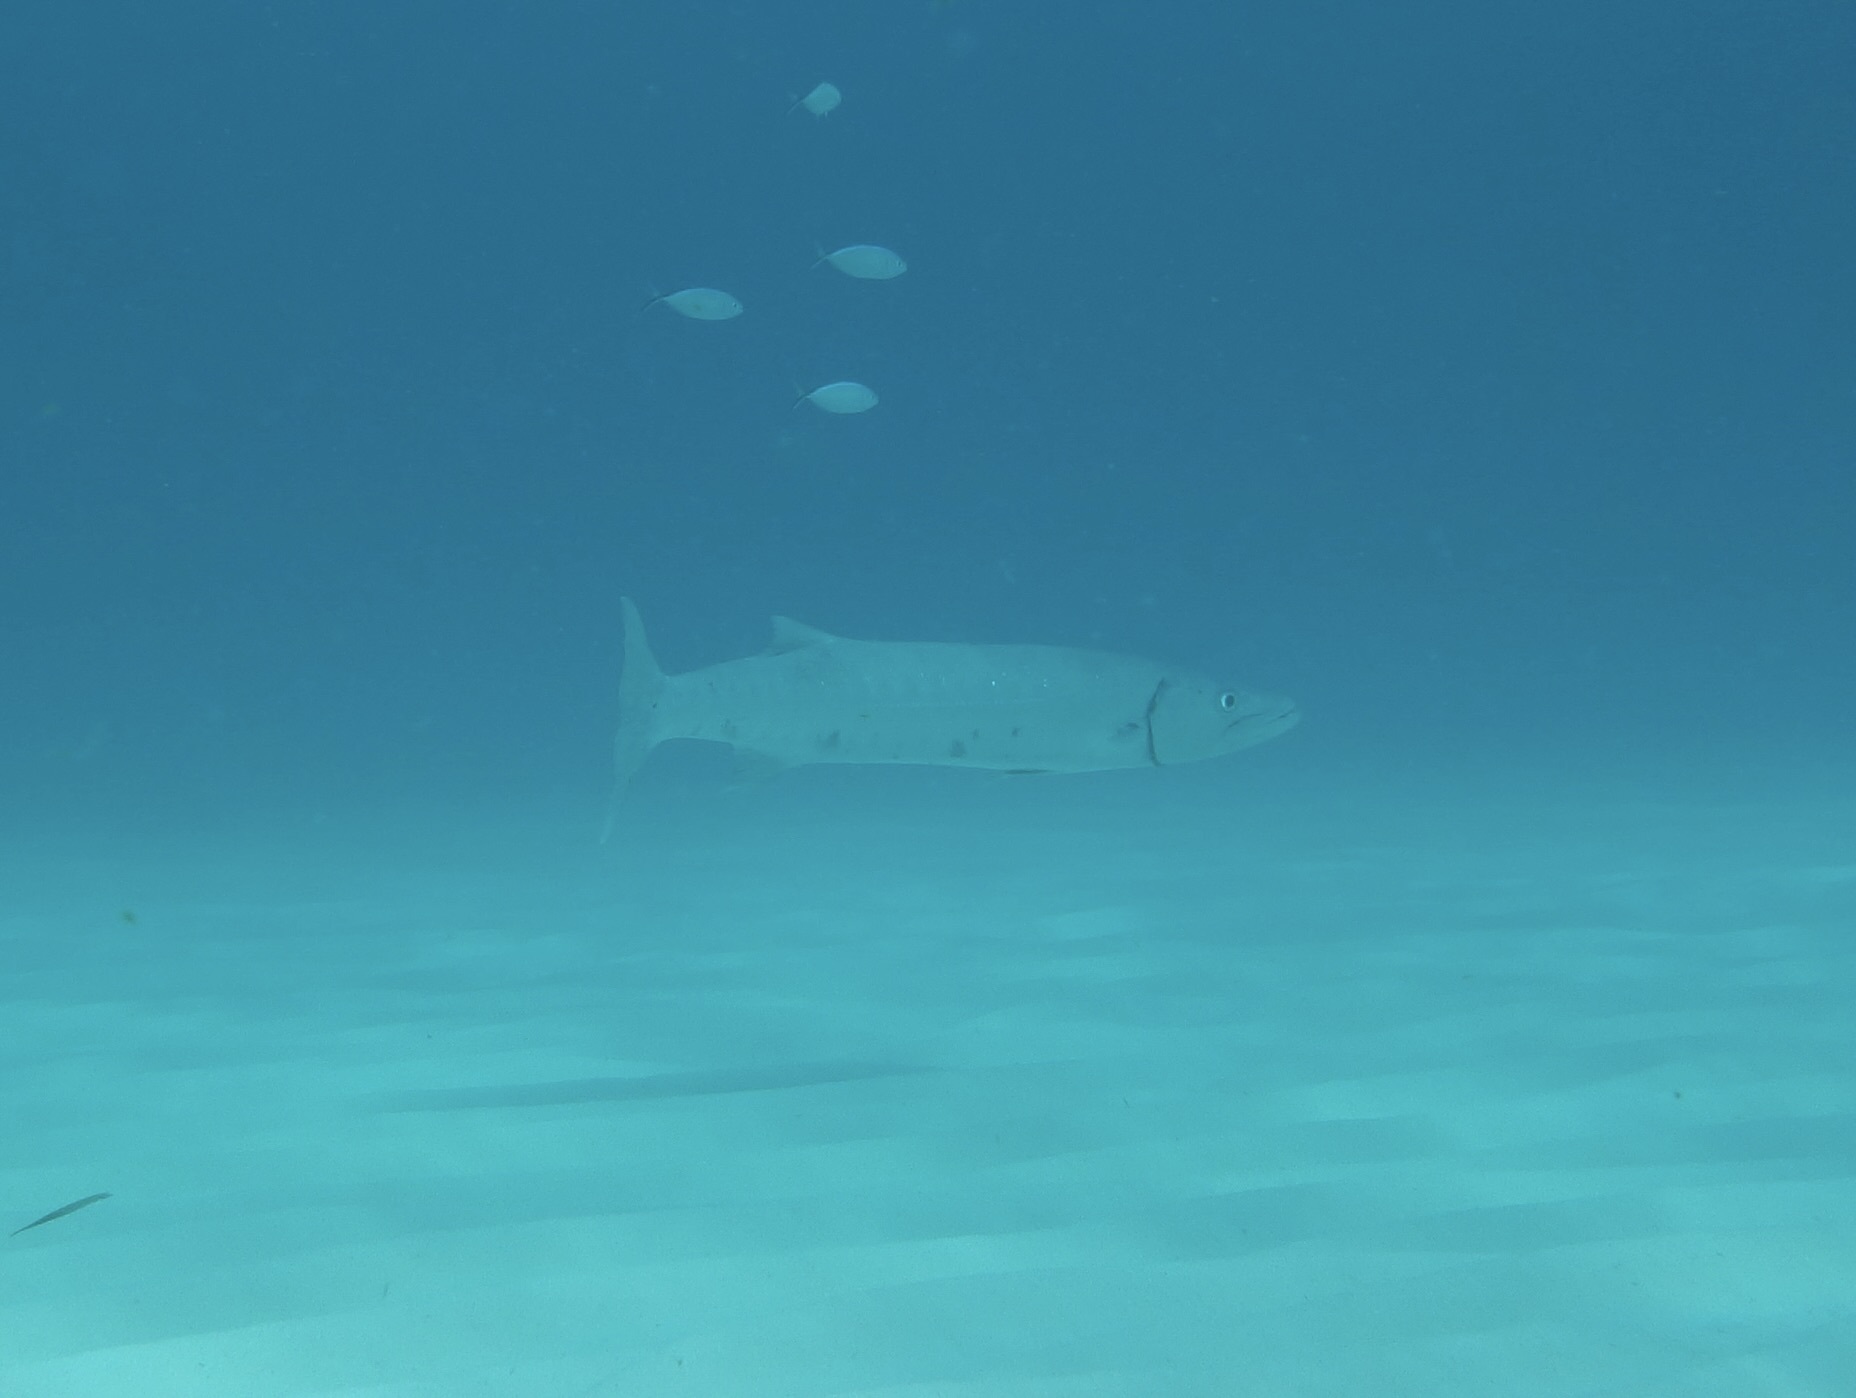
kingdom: Animalia
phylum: Chordata
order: Perciformes
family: Sphyraenidae
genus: Sphyraena
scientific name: Sphyraena barracuda
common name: Great barracuda
